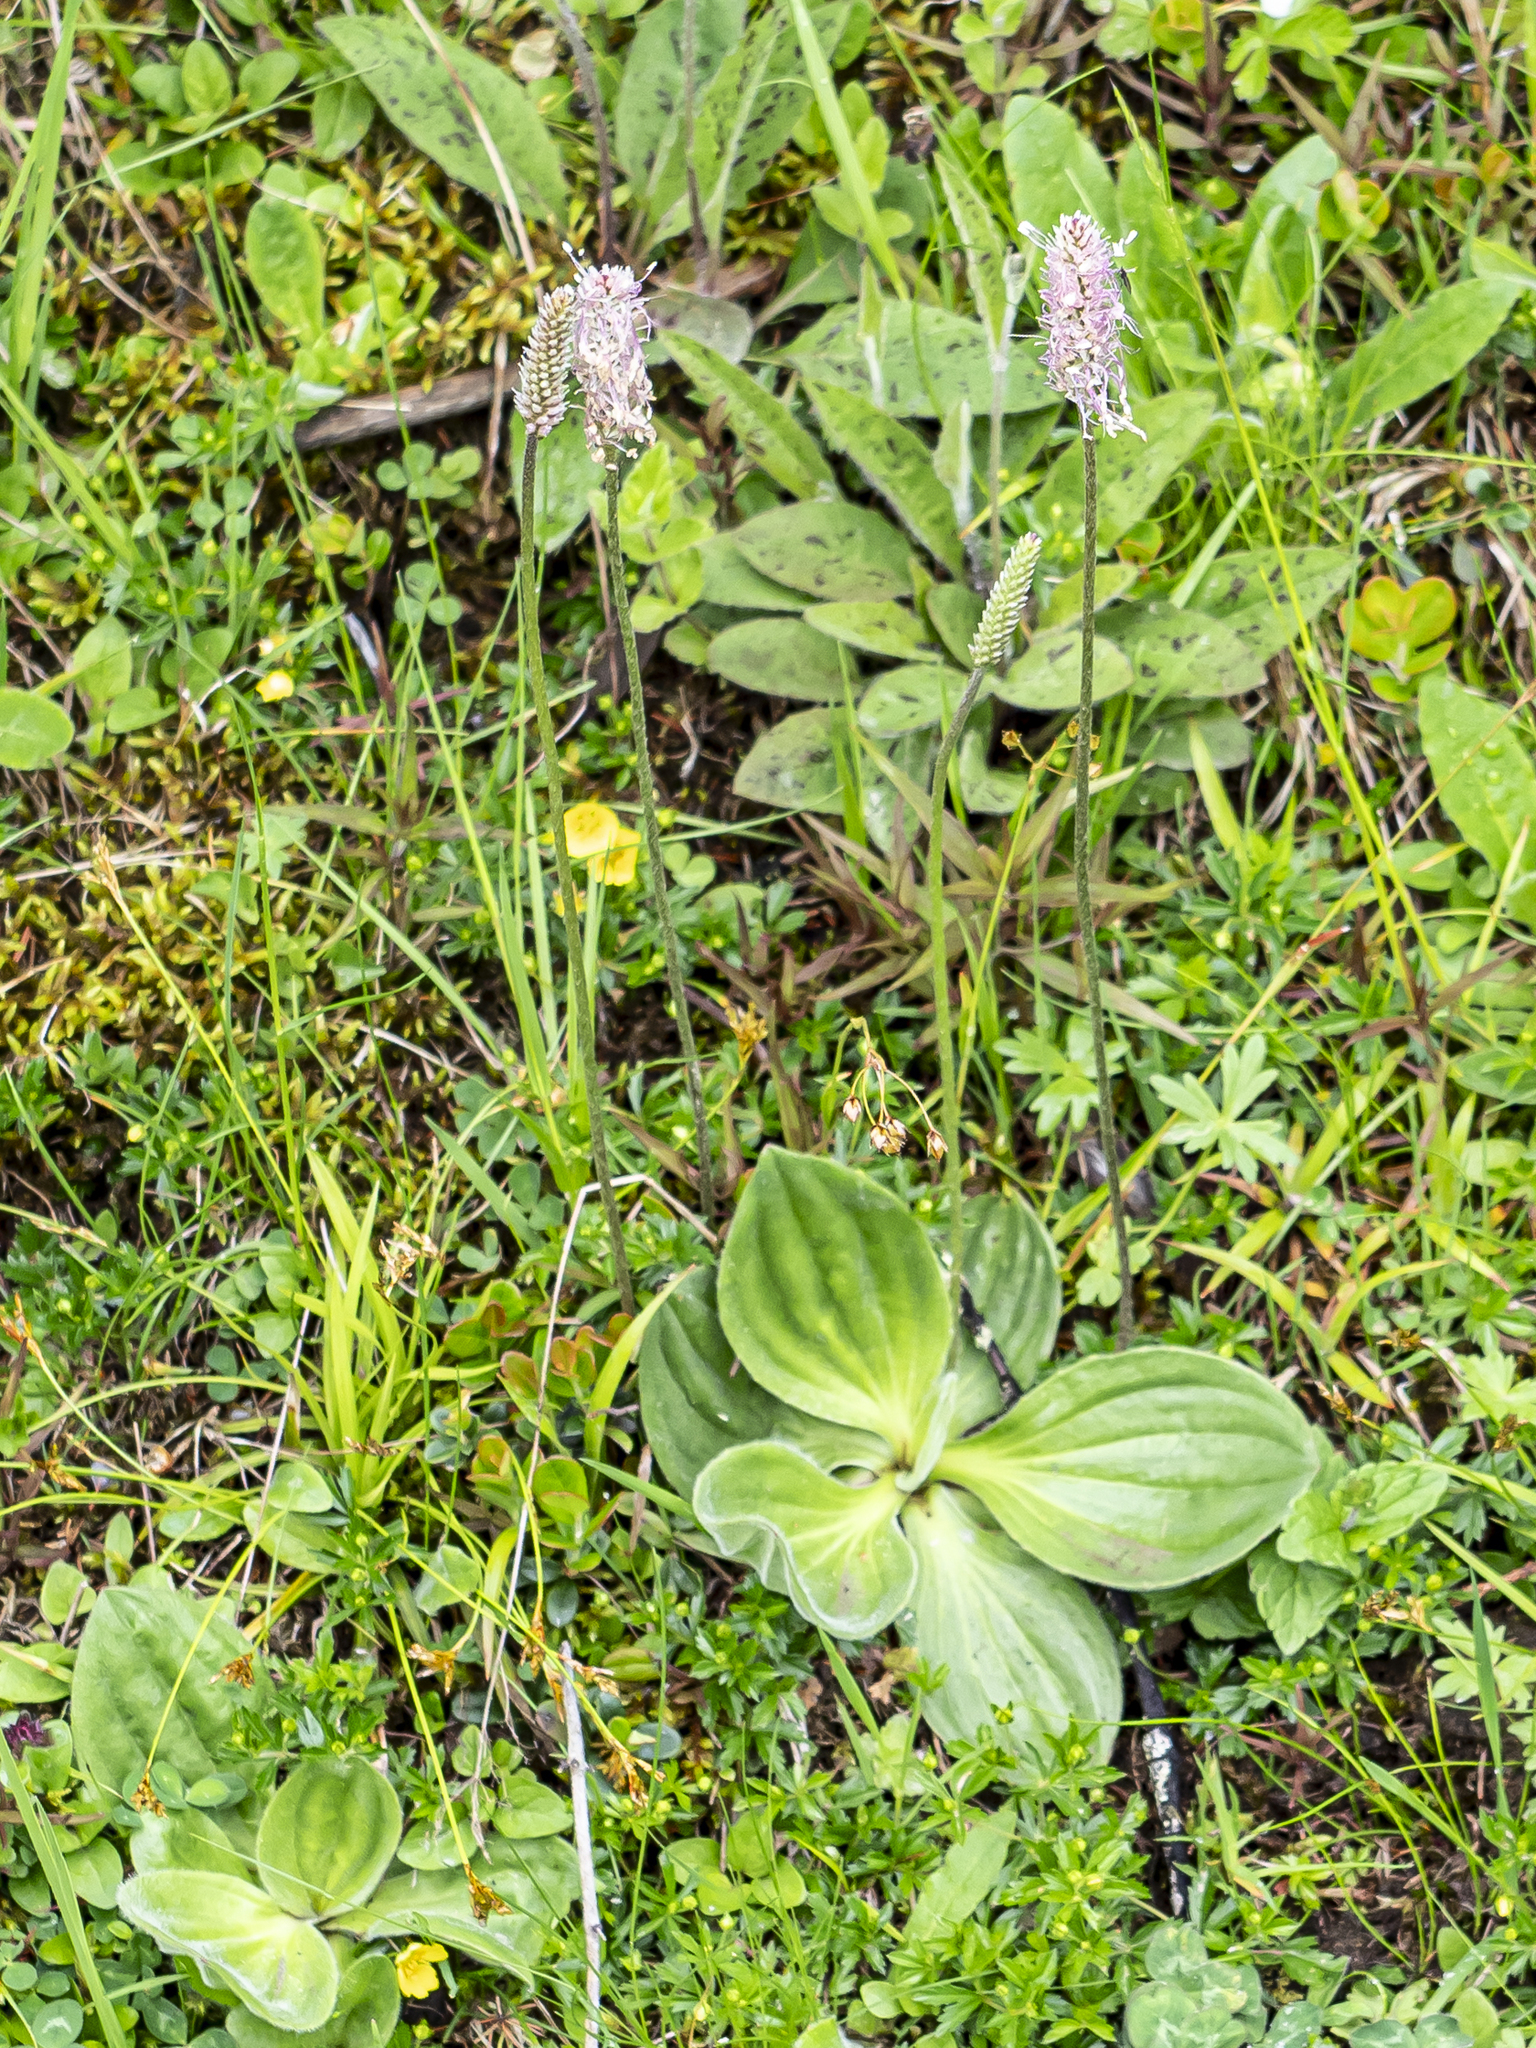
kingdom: Plantae
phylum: Tracheophyta
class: Magnoliopsida
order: Lamiales
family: Plantaginaceae
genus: Plantago
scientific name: Plantago media
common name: Hoary plantain
